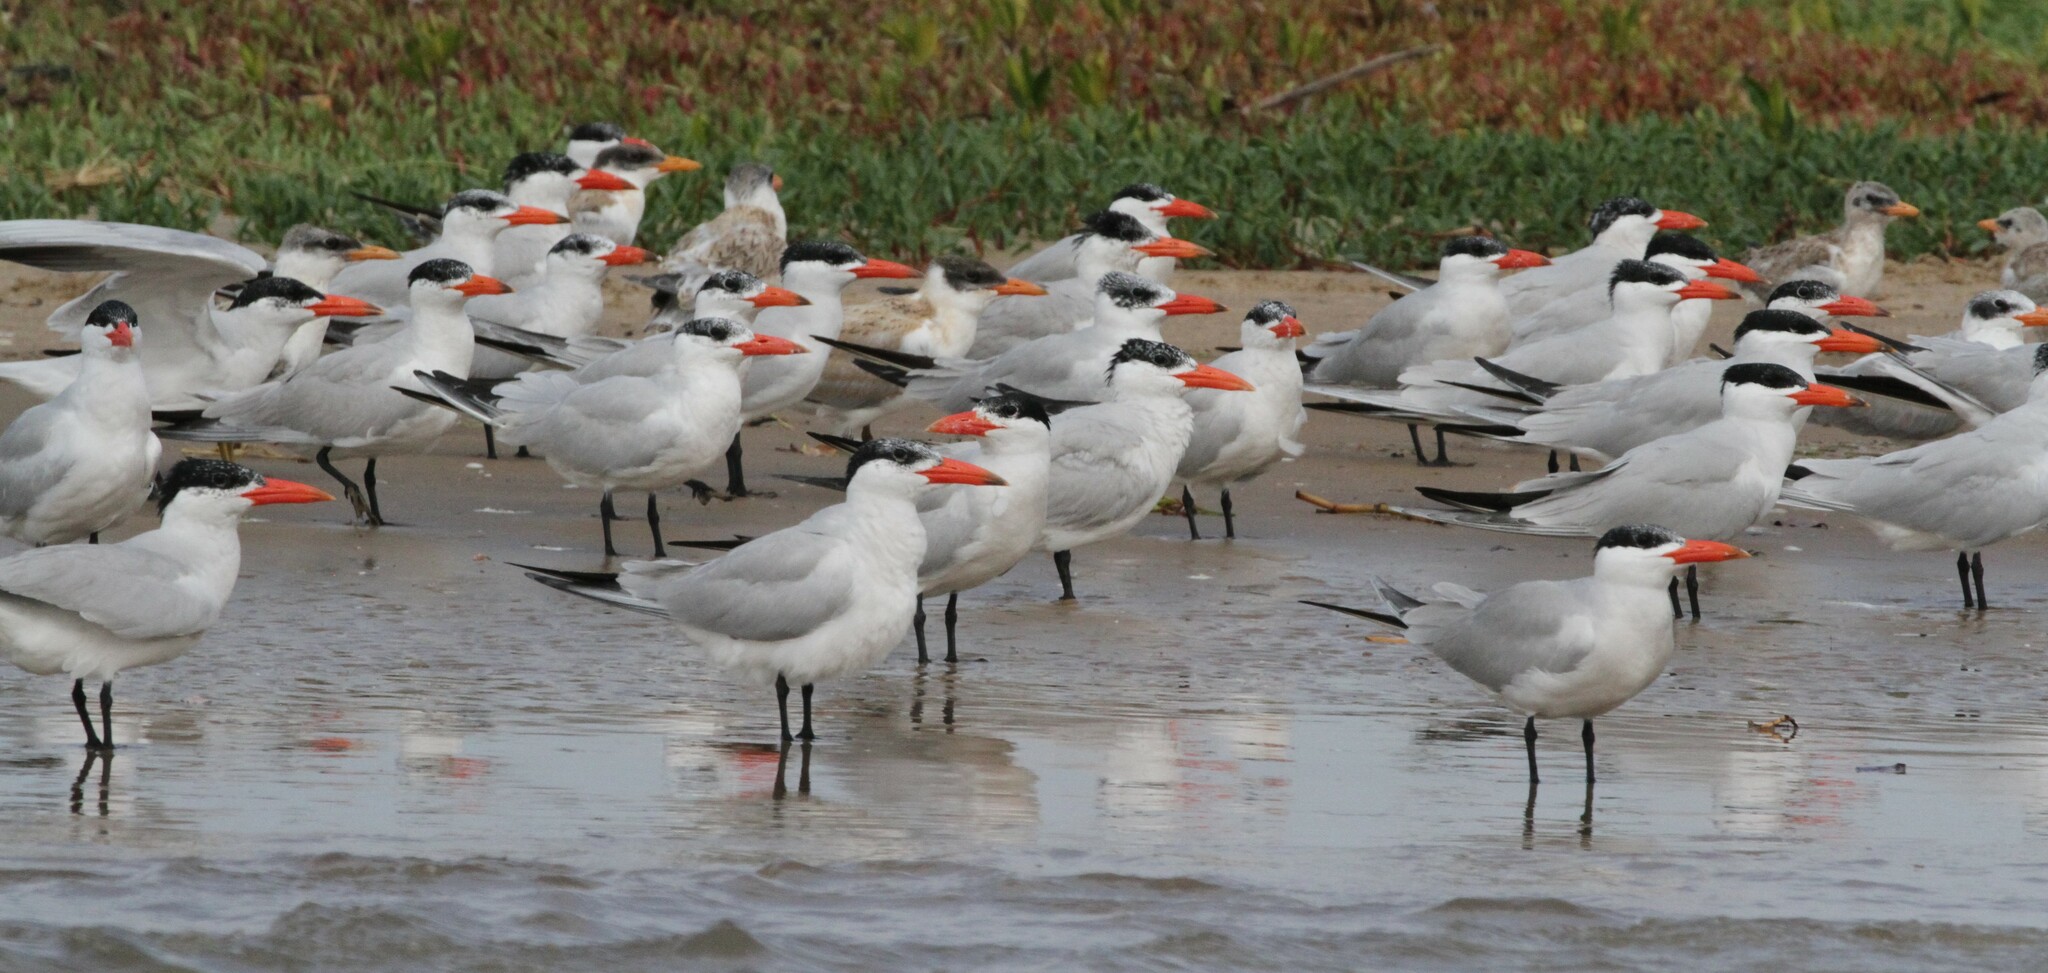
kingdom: Animalia
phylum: Chordata
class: Aves
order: Charadriiformes
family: Laridae
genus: Hydroprogne
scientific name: Hydroprogne caspia
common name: Caspian tern
